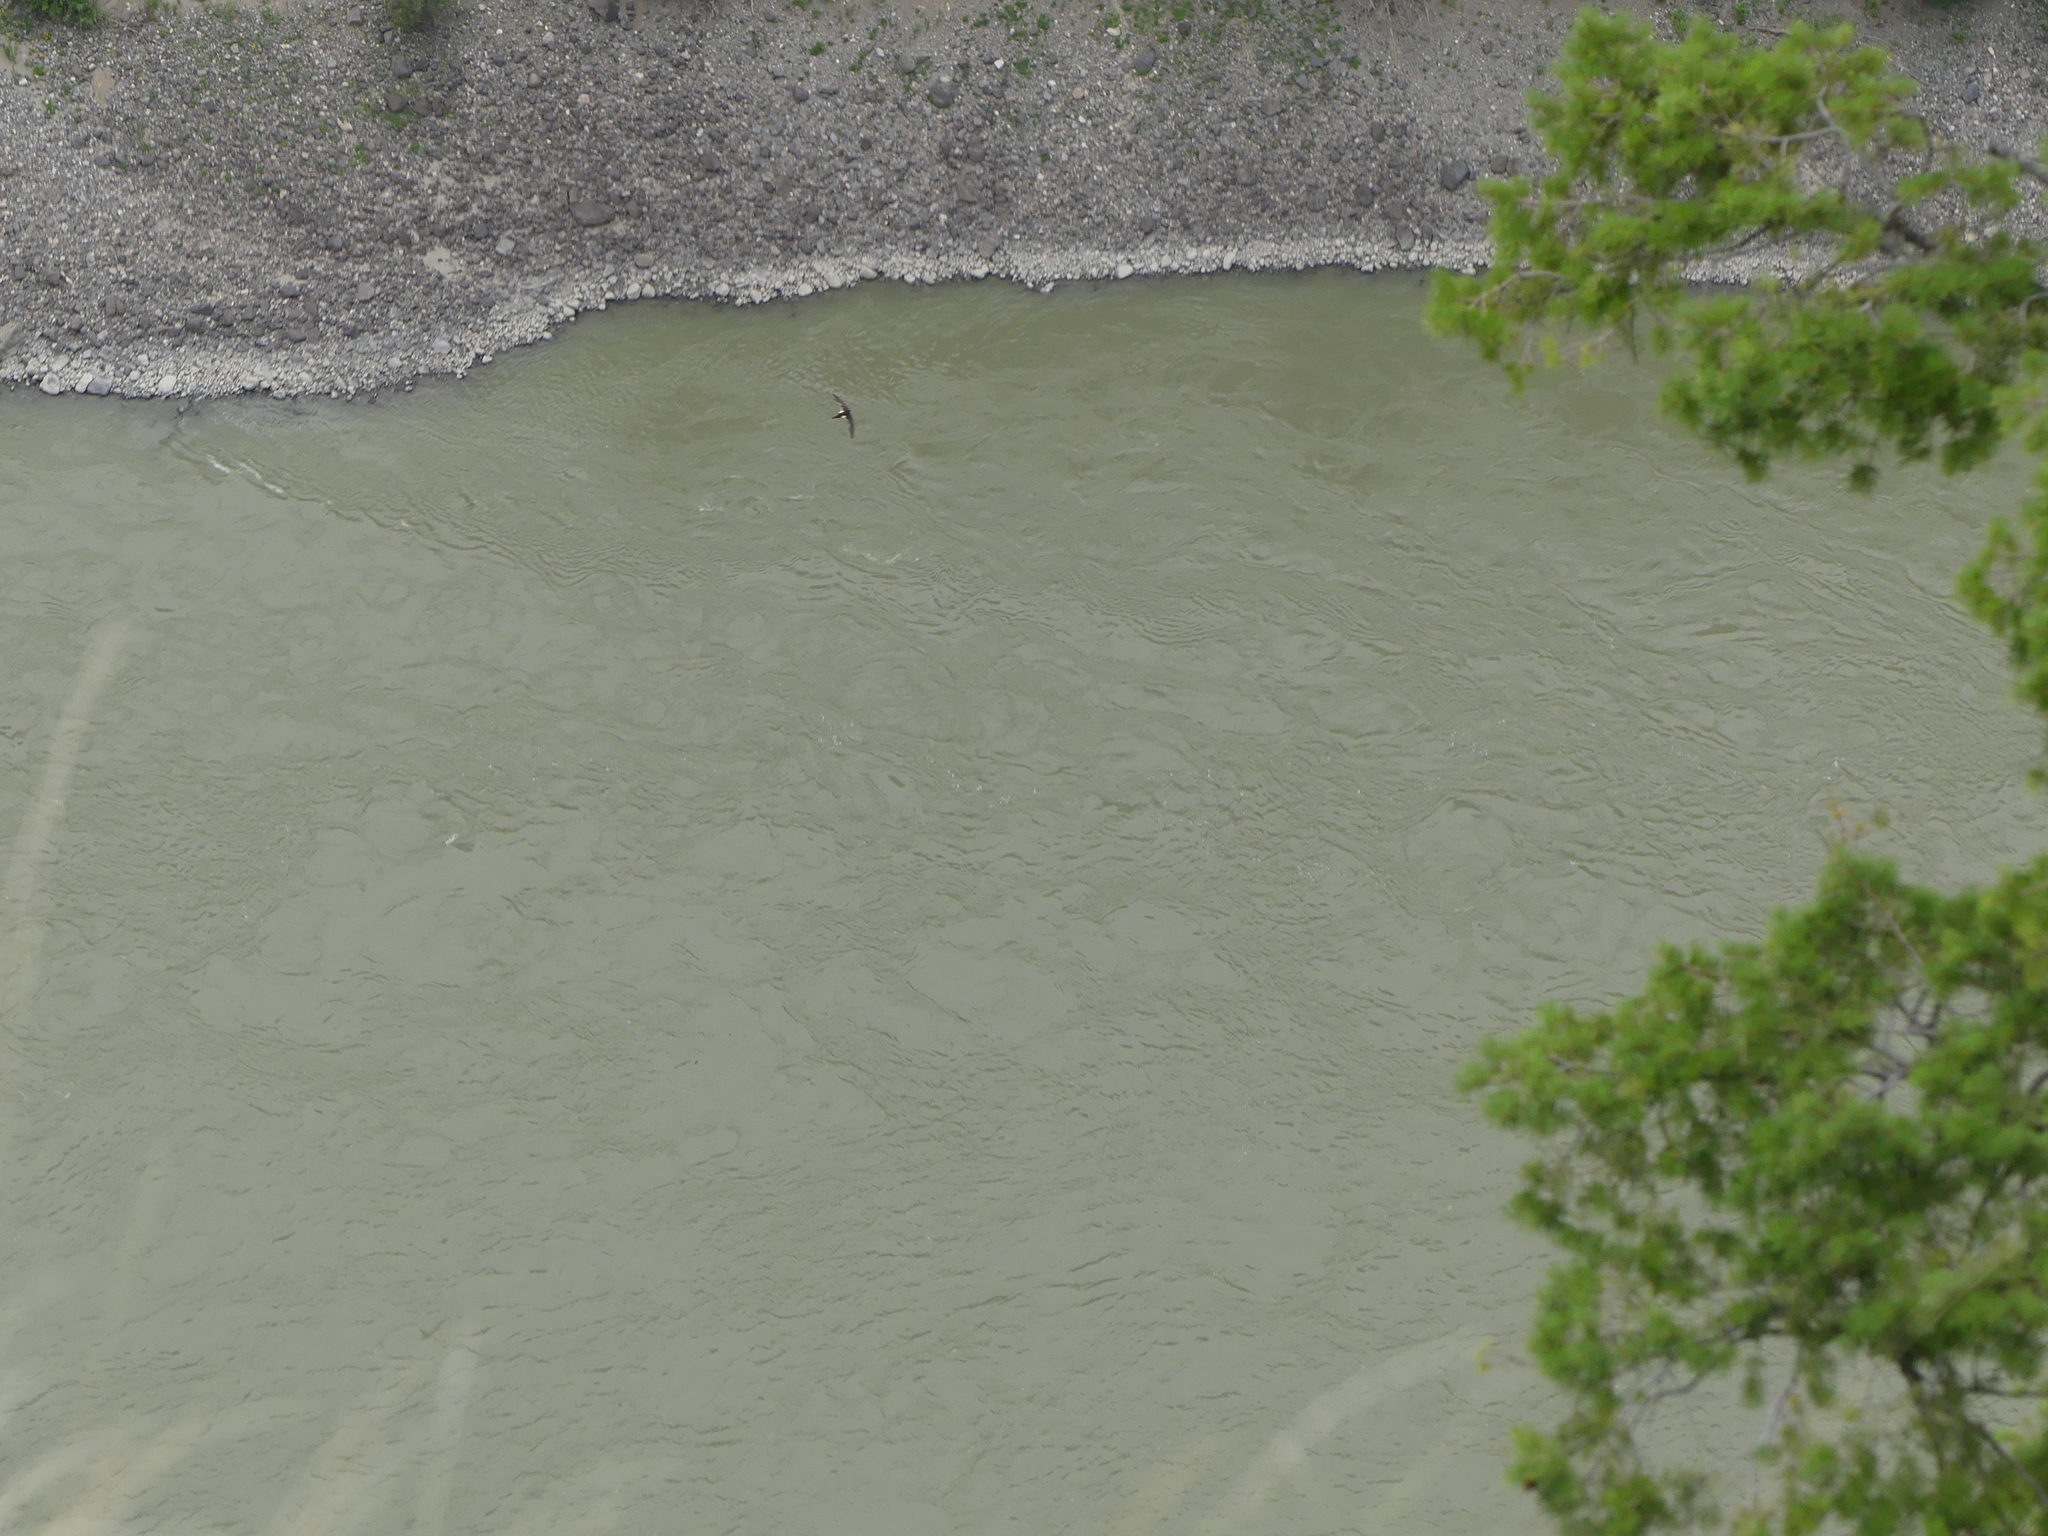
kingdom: Animalia
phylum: Chordata
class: Aves
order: Apodiformes
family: Apodidae
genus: Aeronautes
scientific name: Aeronautes saxatalis
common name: White-throated swift
